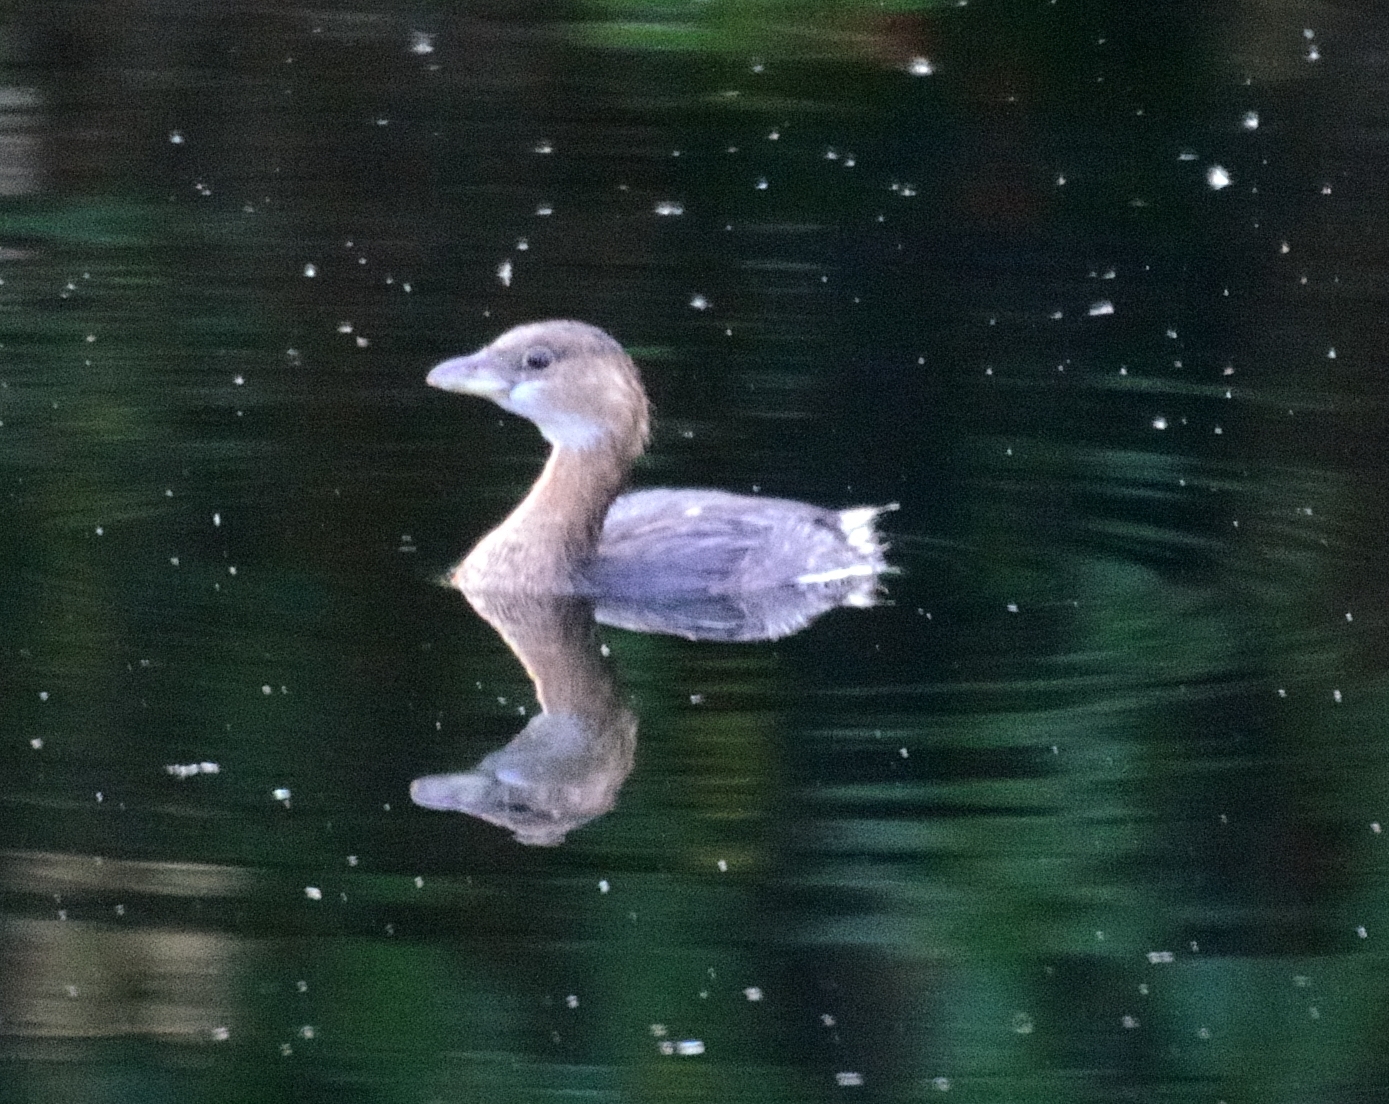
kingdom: Animalia
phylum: Chordata
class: Aves
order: Podicipediformes
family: Podicipedidae
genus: Podilymbus
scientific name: Podilymbus podiceps
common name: Pied-billed grebe
